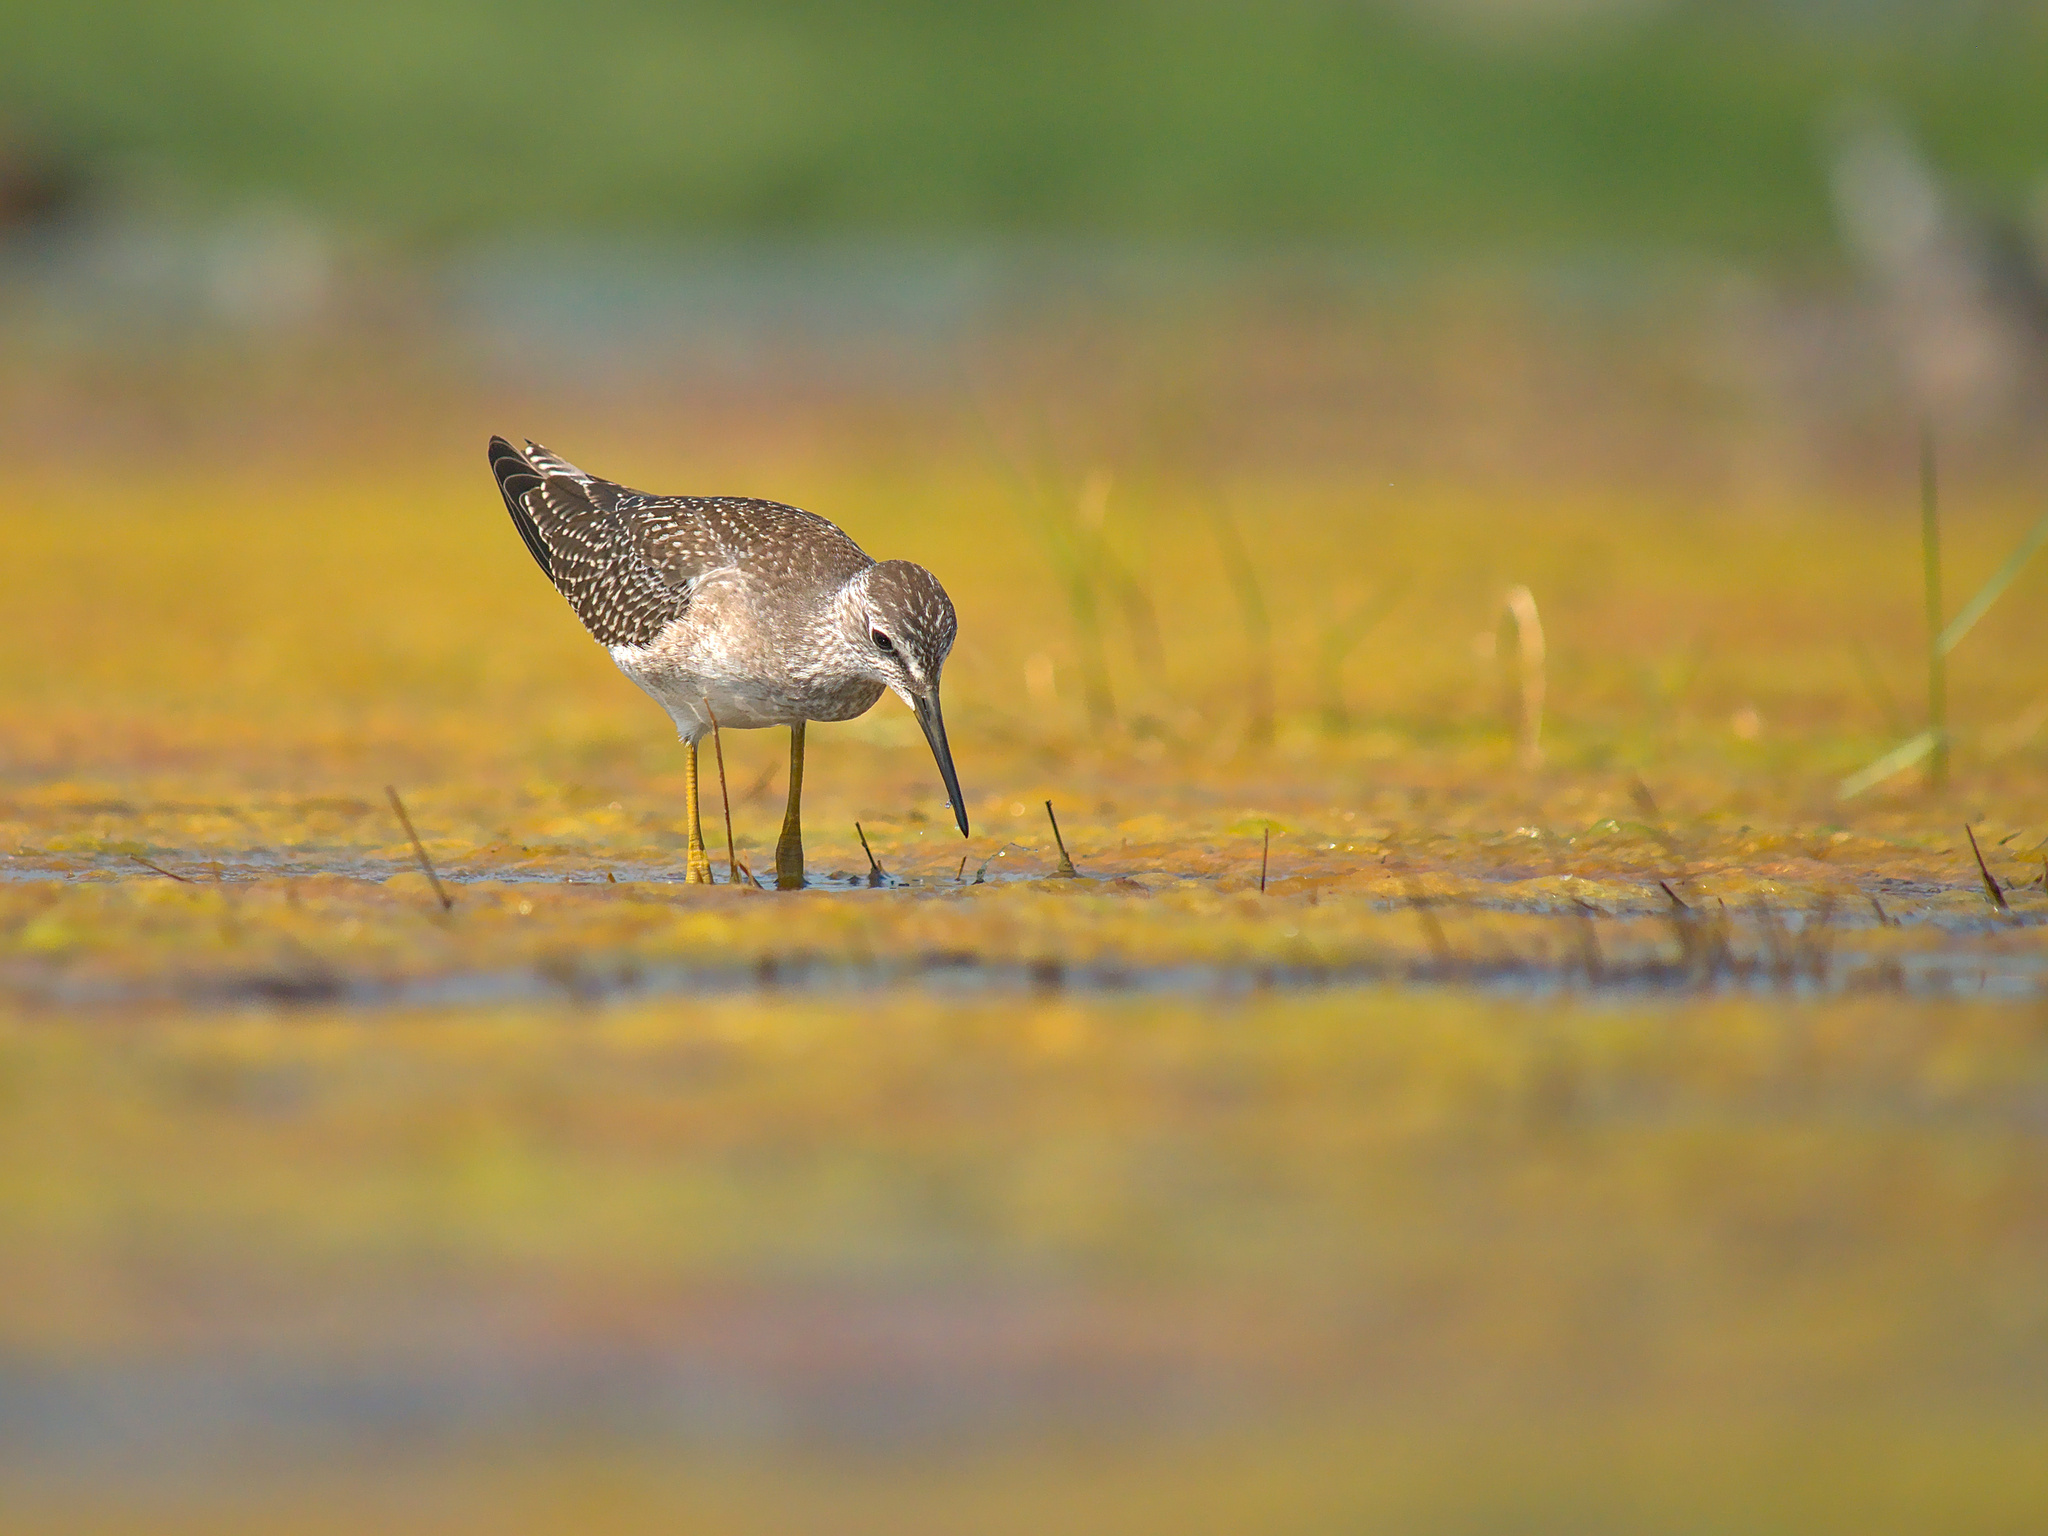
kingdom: Animalia
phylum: Chordata
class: Aves
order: Charadriiformes
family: Scolopacidae
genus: Tringa
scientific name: Tringa flavipes
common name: Lesser yellowlegs
